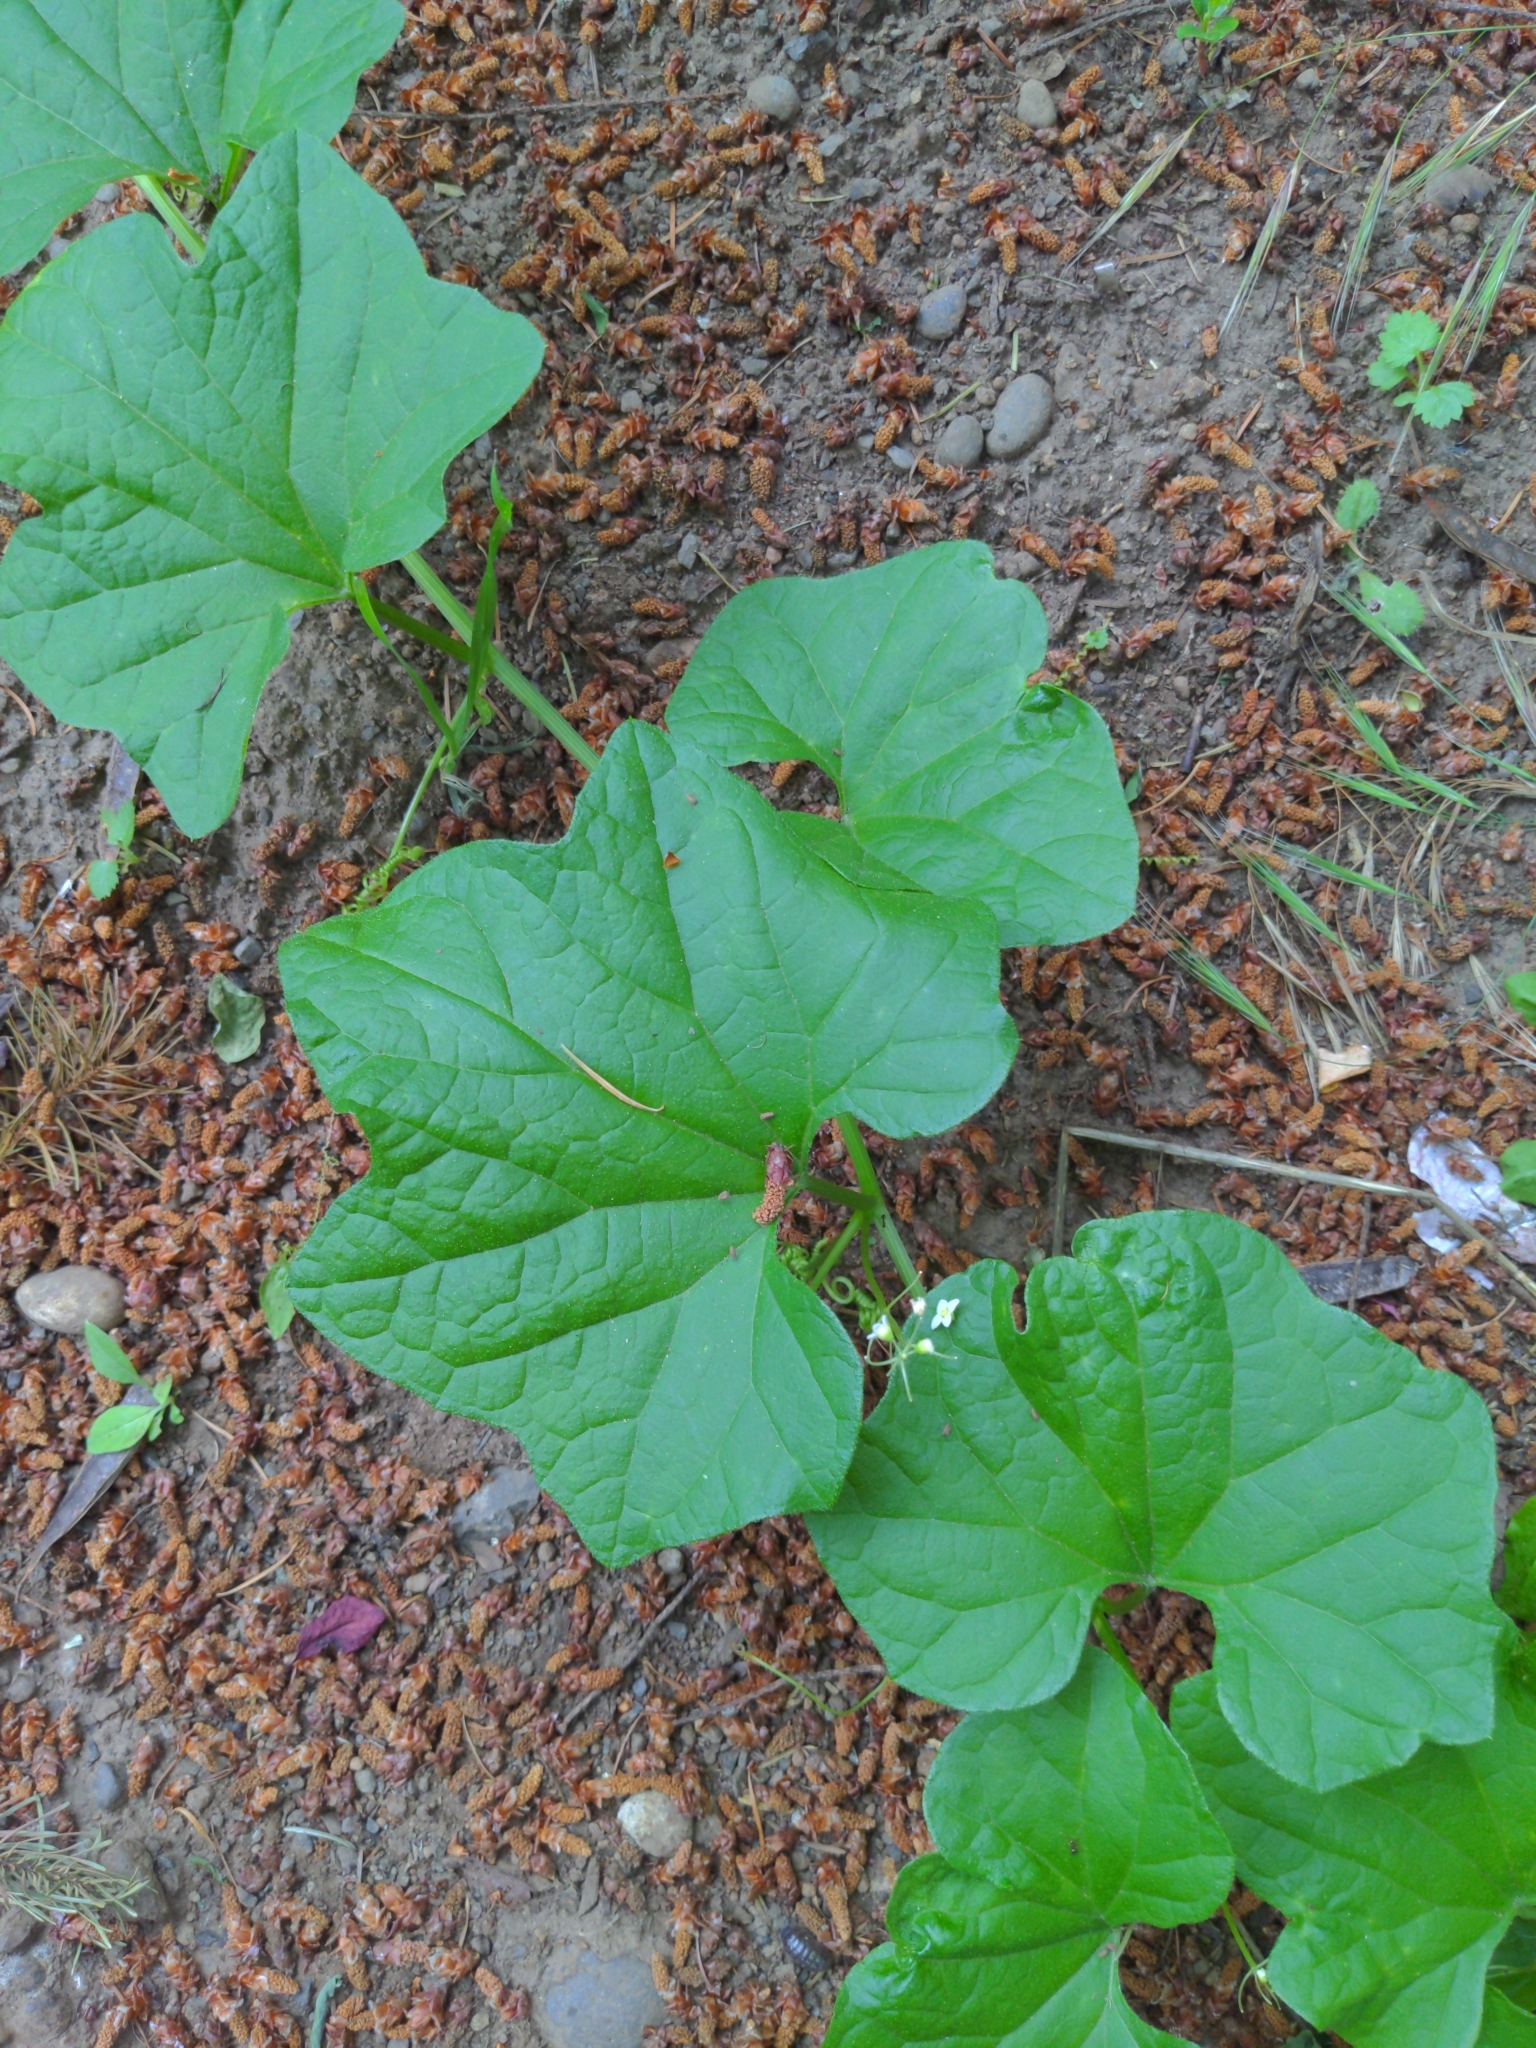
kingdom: Plantae
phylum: Tracheophyta
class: Magnoliopsida
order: Cucurbitales
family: Cucurbitaceae
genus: Marah
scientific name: Marah oregana
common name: Coastal manroot
